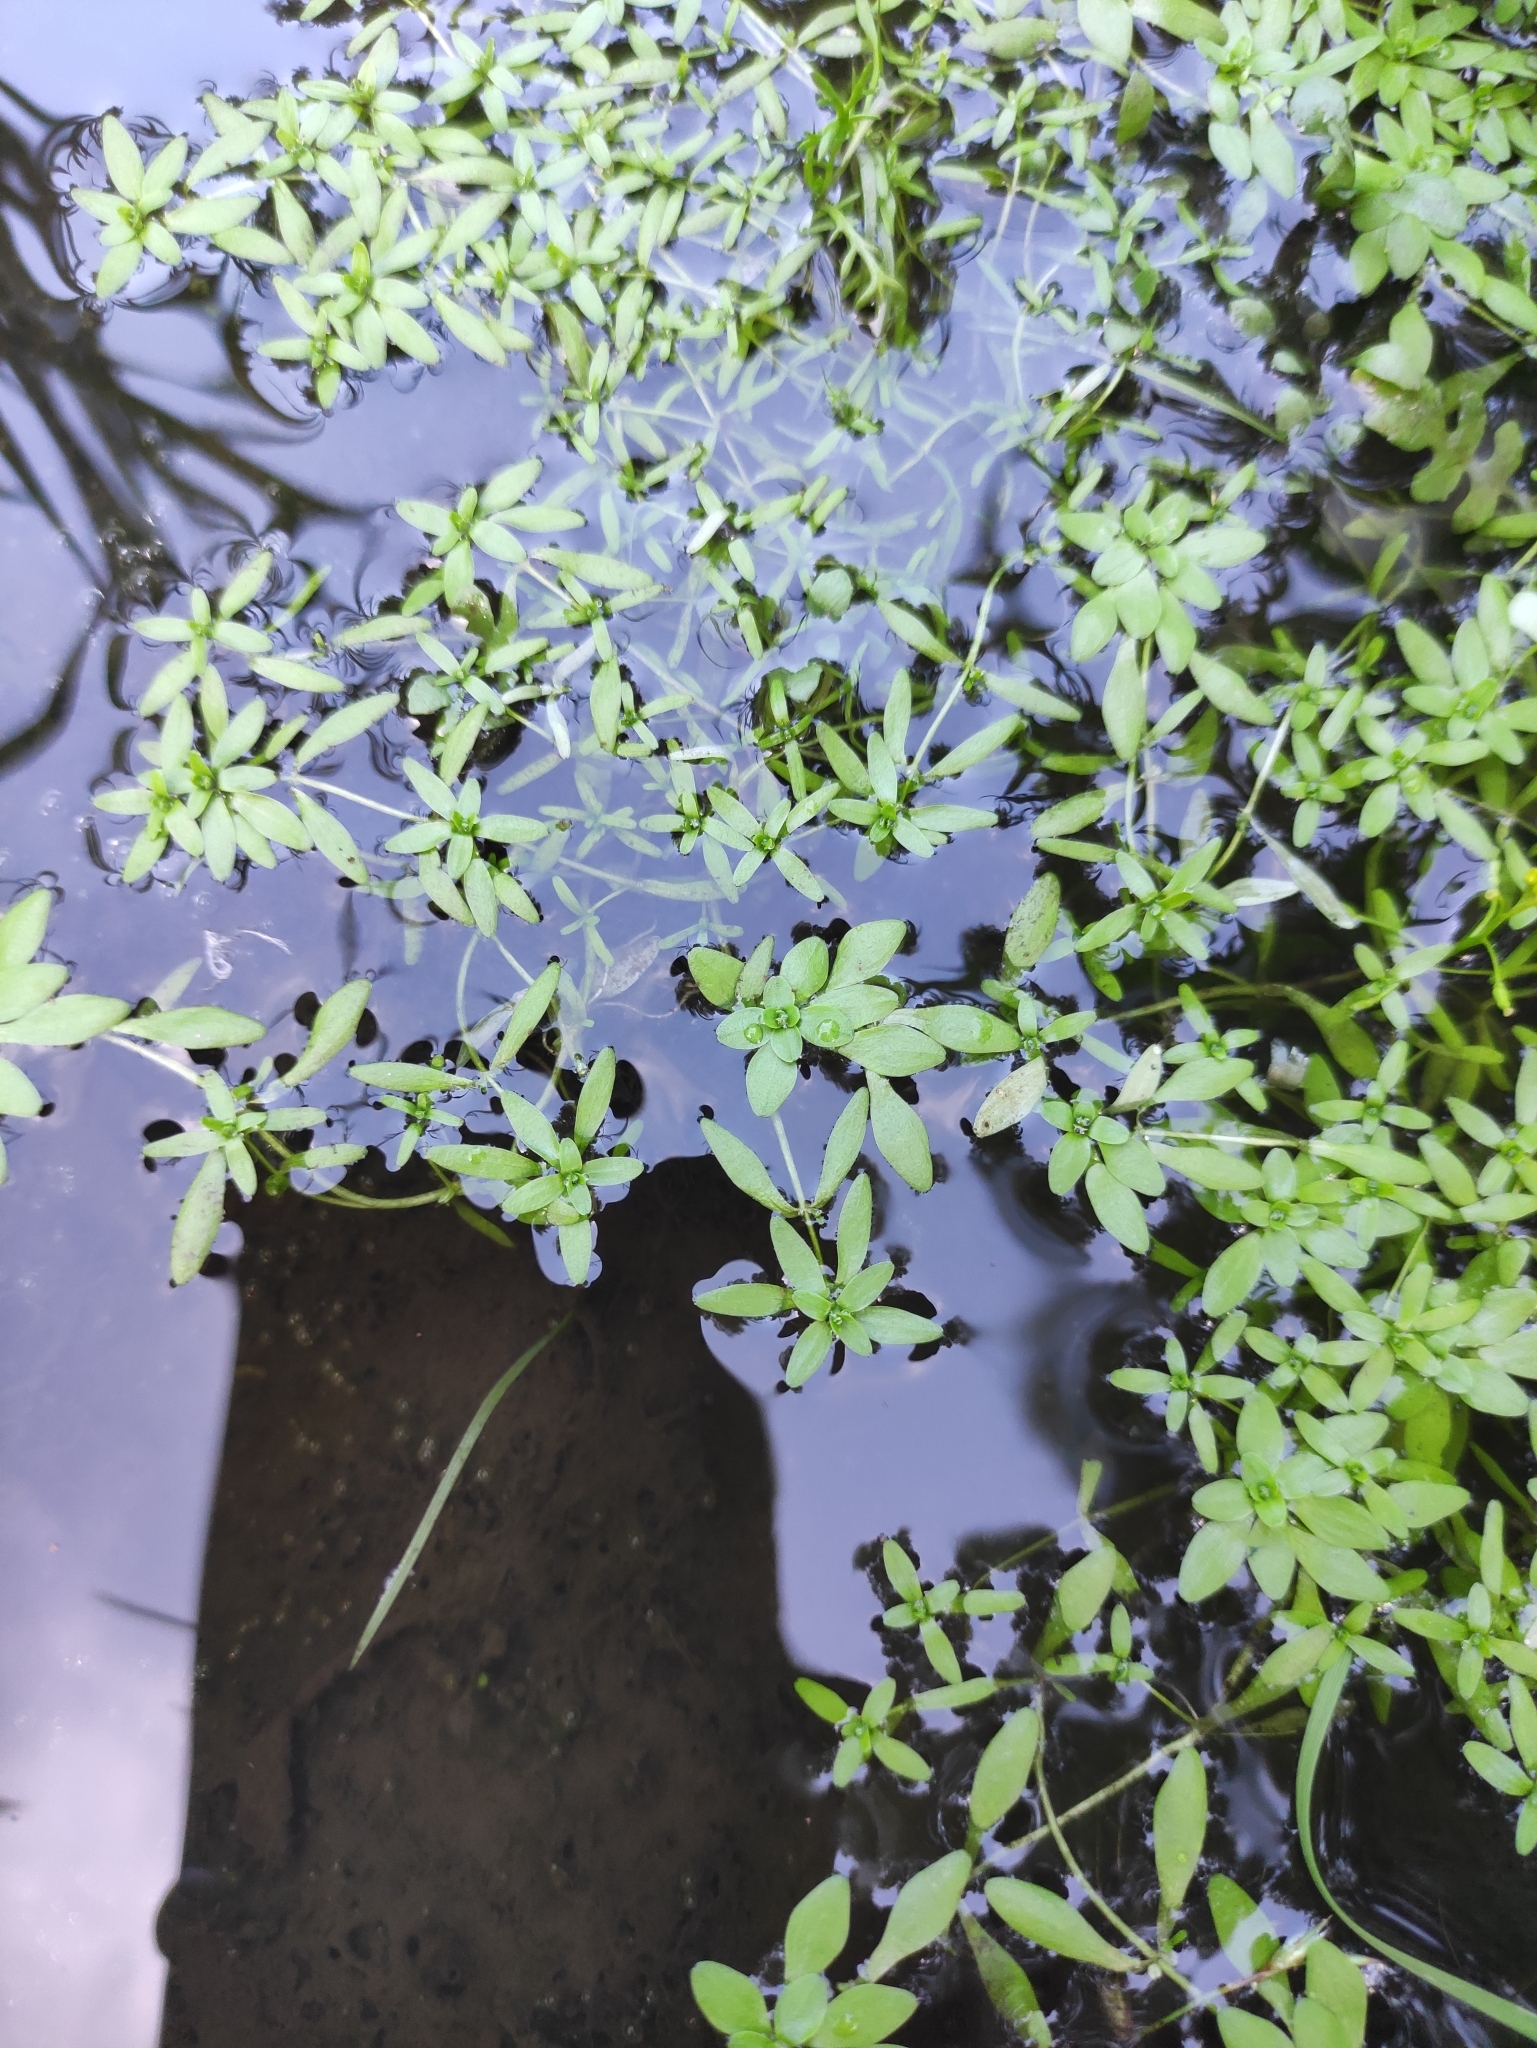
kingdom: Plantae
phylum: Tracheophyta
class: Magnoliopsida
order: Lamiales
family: Plantaginaceae
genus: Callitriche
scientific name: Callitriche palustris
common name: Spring water-starwort
